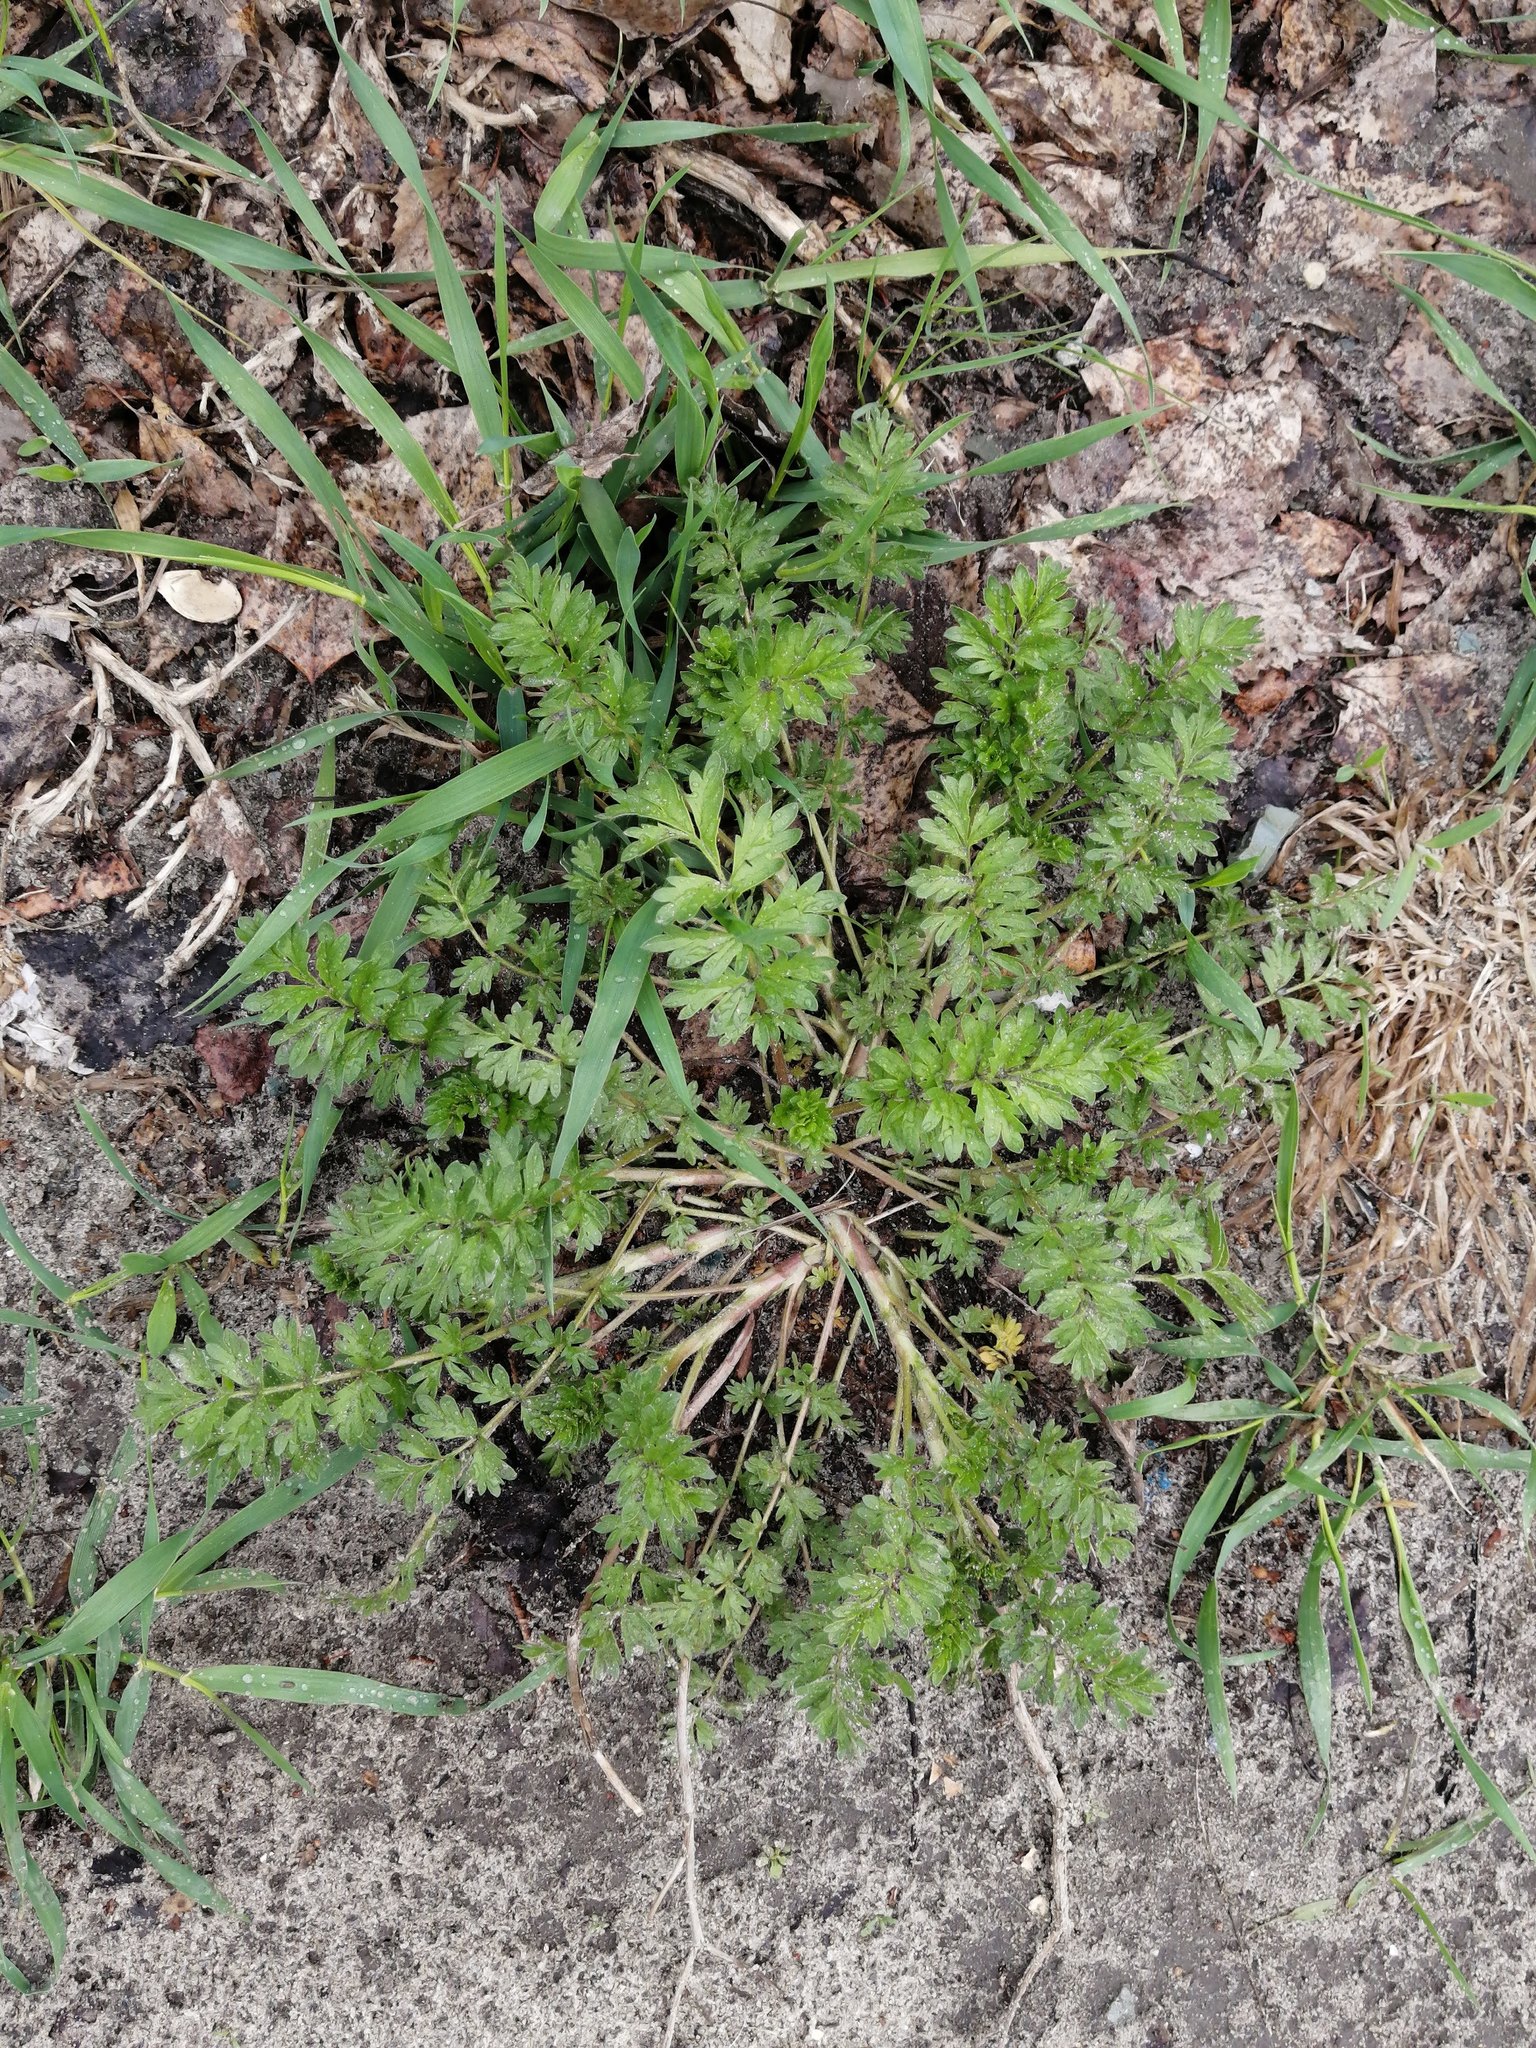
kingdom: Plantae
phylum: Tracheophyta
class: Magnoliopsida
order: Rosales
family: Rosaceae
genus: Potentilla
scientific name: Potentilla supina
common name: Prostrate cinquefoil
